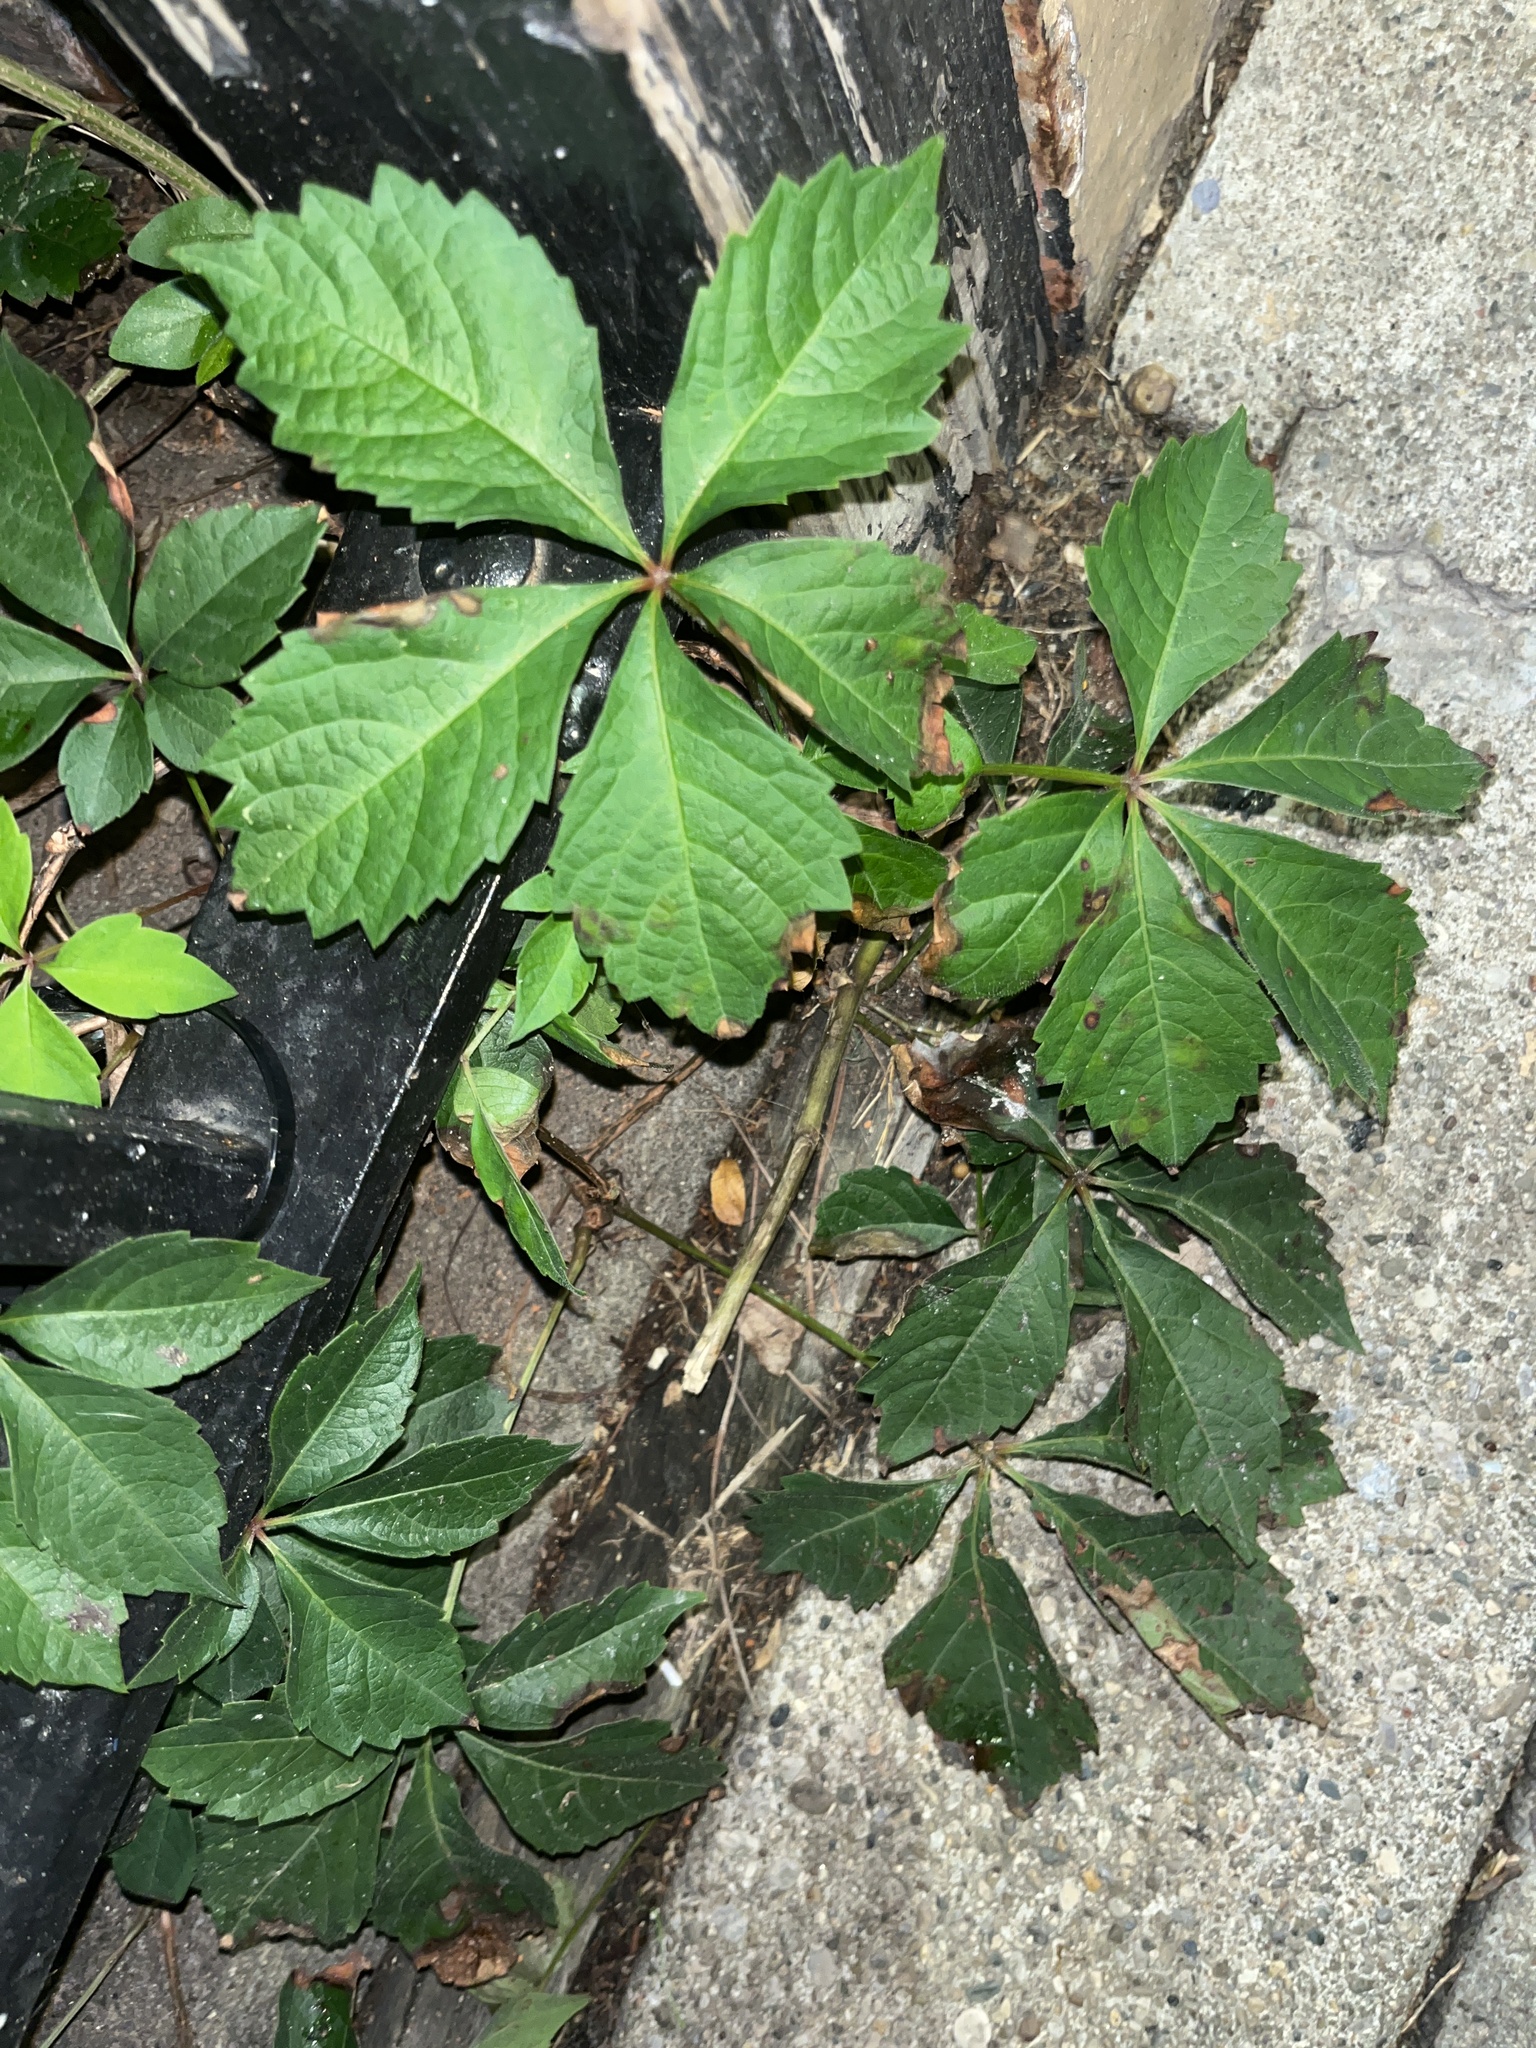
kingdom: Plantae
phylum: Tracheophyta
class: Magnoliopsida
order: Vitales
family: Vitaceae
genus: Parthenocissus
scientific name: Parthenocissus quinquefolia
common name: Virginia-creeper
